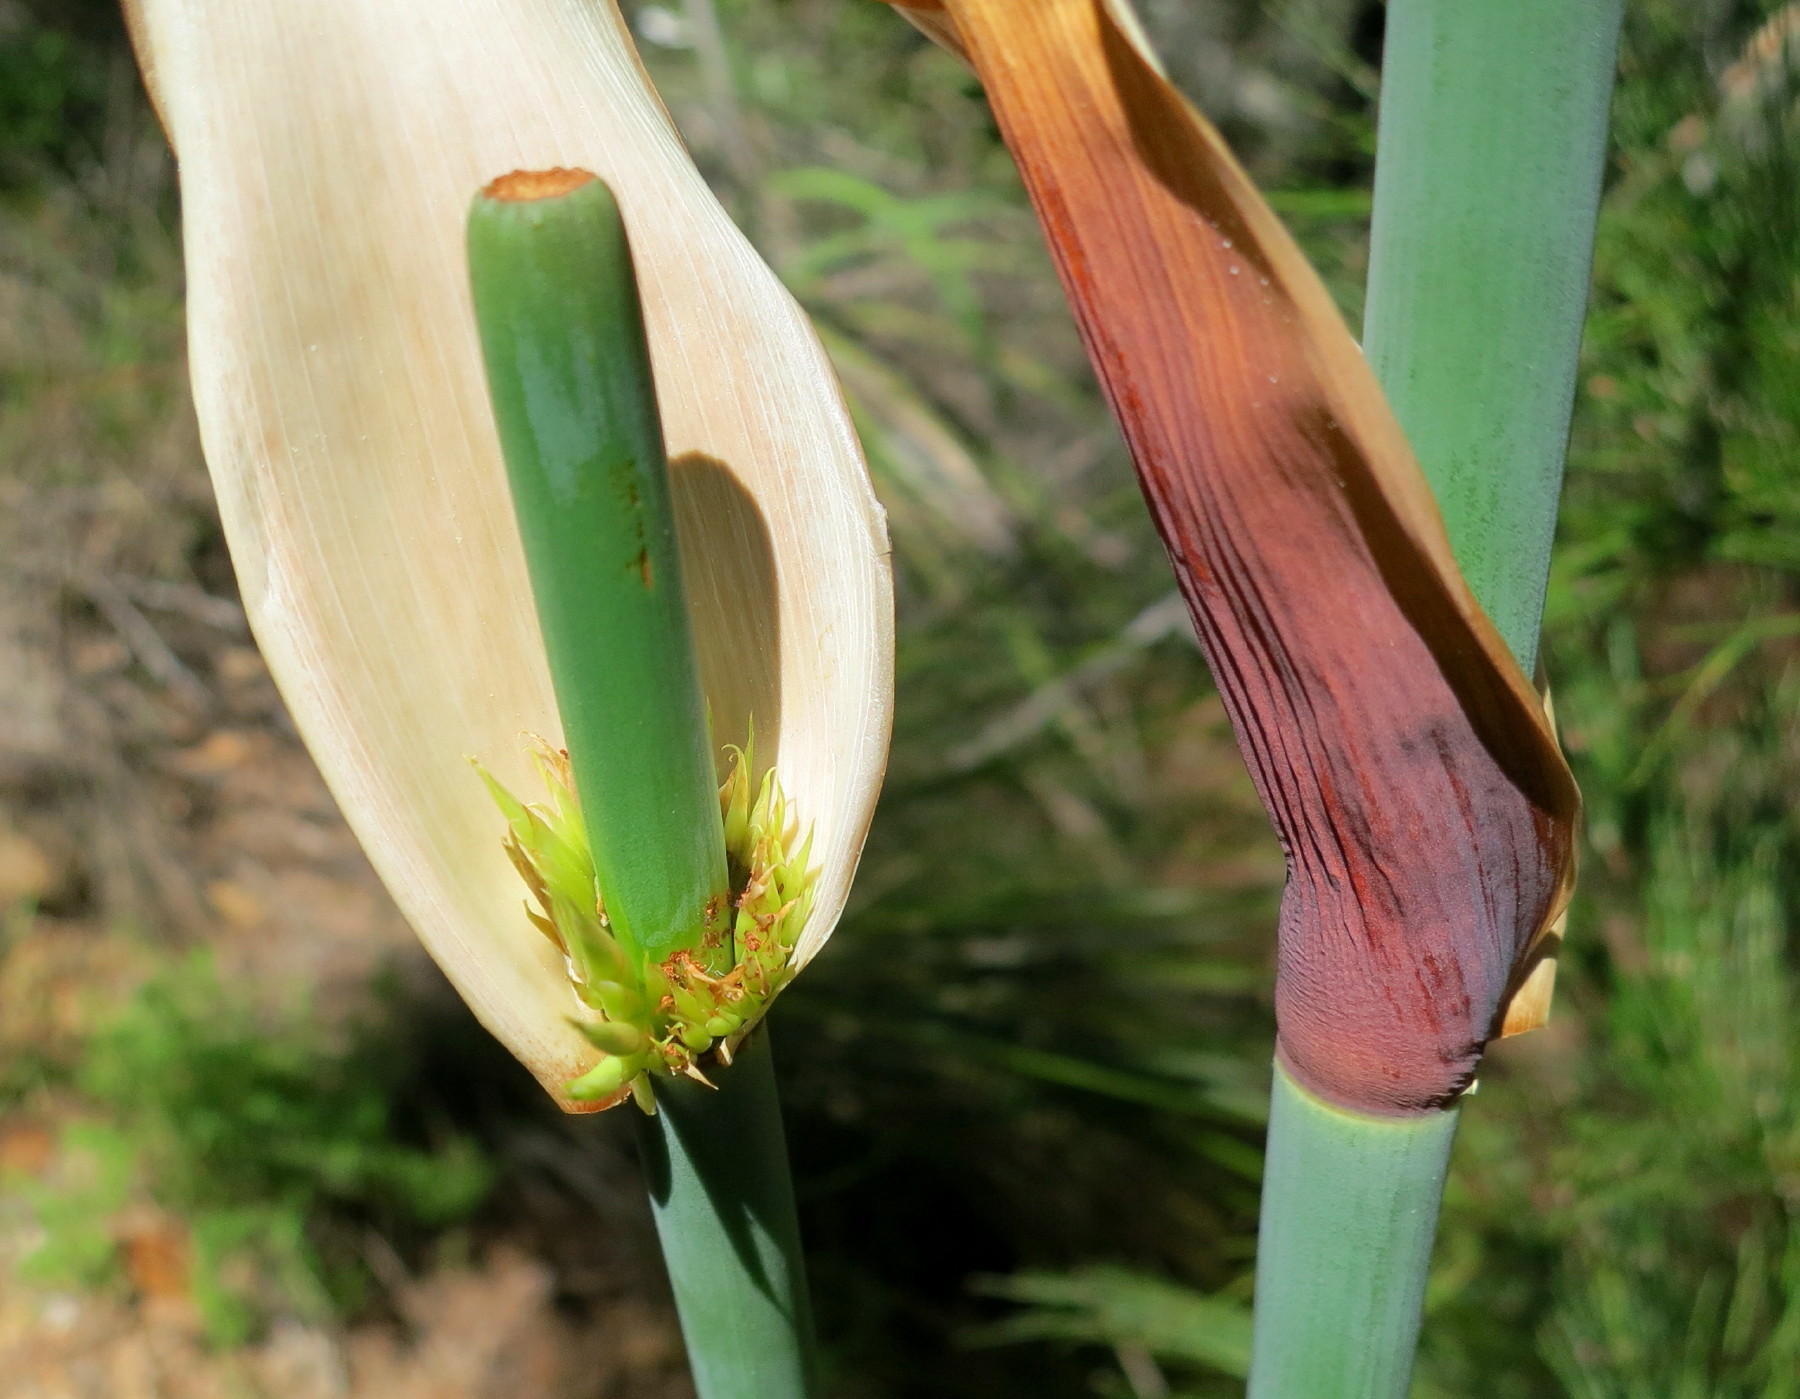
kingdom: Plantae
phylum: Tracheophyta
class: Liliopsida
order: Poales
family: Restionaceae
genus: Elegia
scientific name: Elegia capensis
